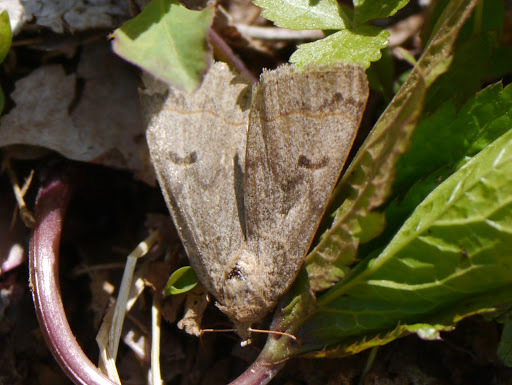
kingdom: Animalia
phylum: Arthropoda
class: Insecta
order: Lepidoptera
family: Erebidae
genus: Phoberia
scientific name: Phoberia atomaris
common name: Common oak moth
